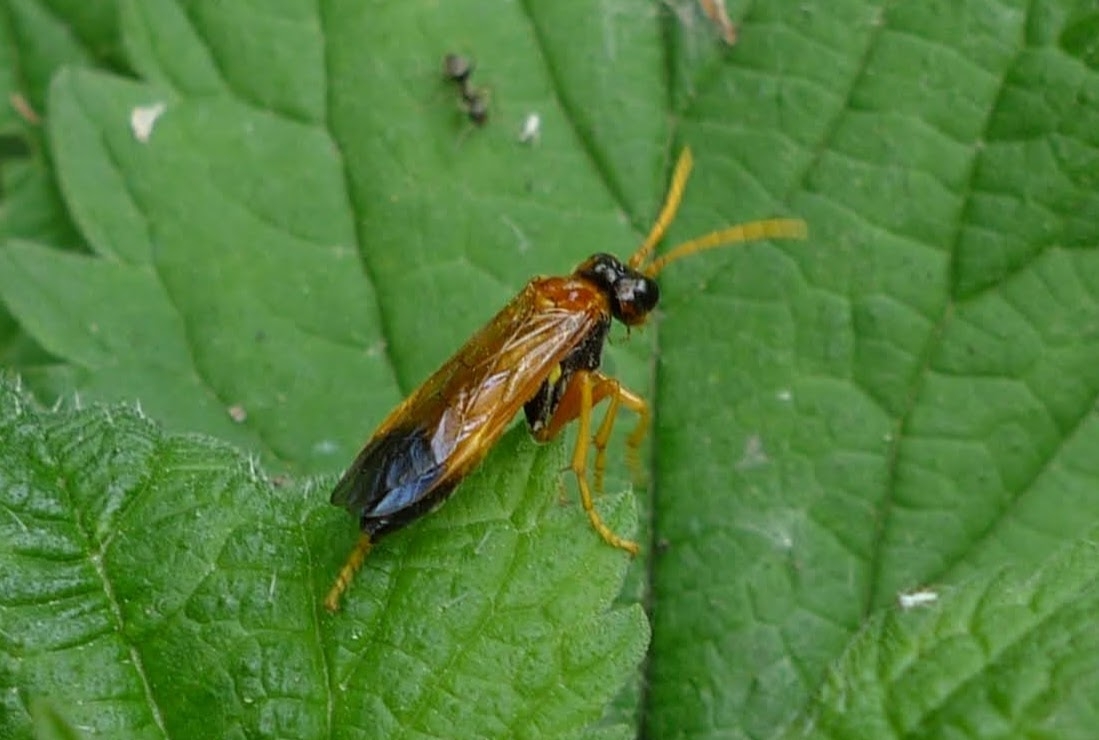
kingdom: Animalia
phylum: Arthropoda
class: Insecta
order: Hymenoptera
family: Tenthredinidae
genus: Tenthredo
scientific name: Tenthredo campestris
